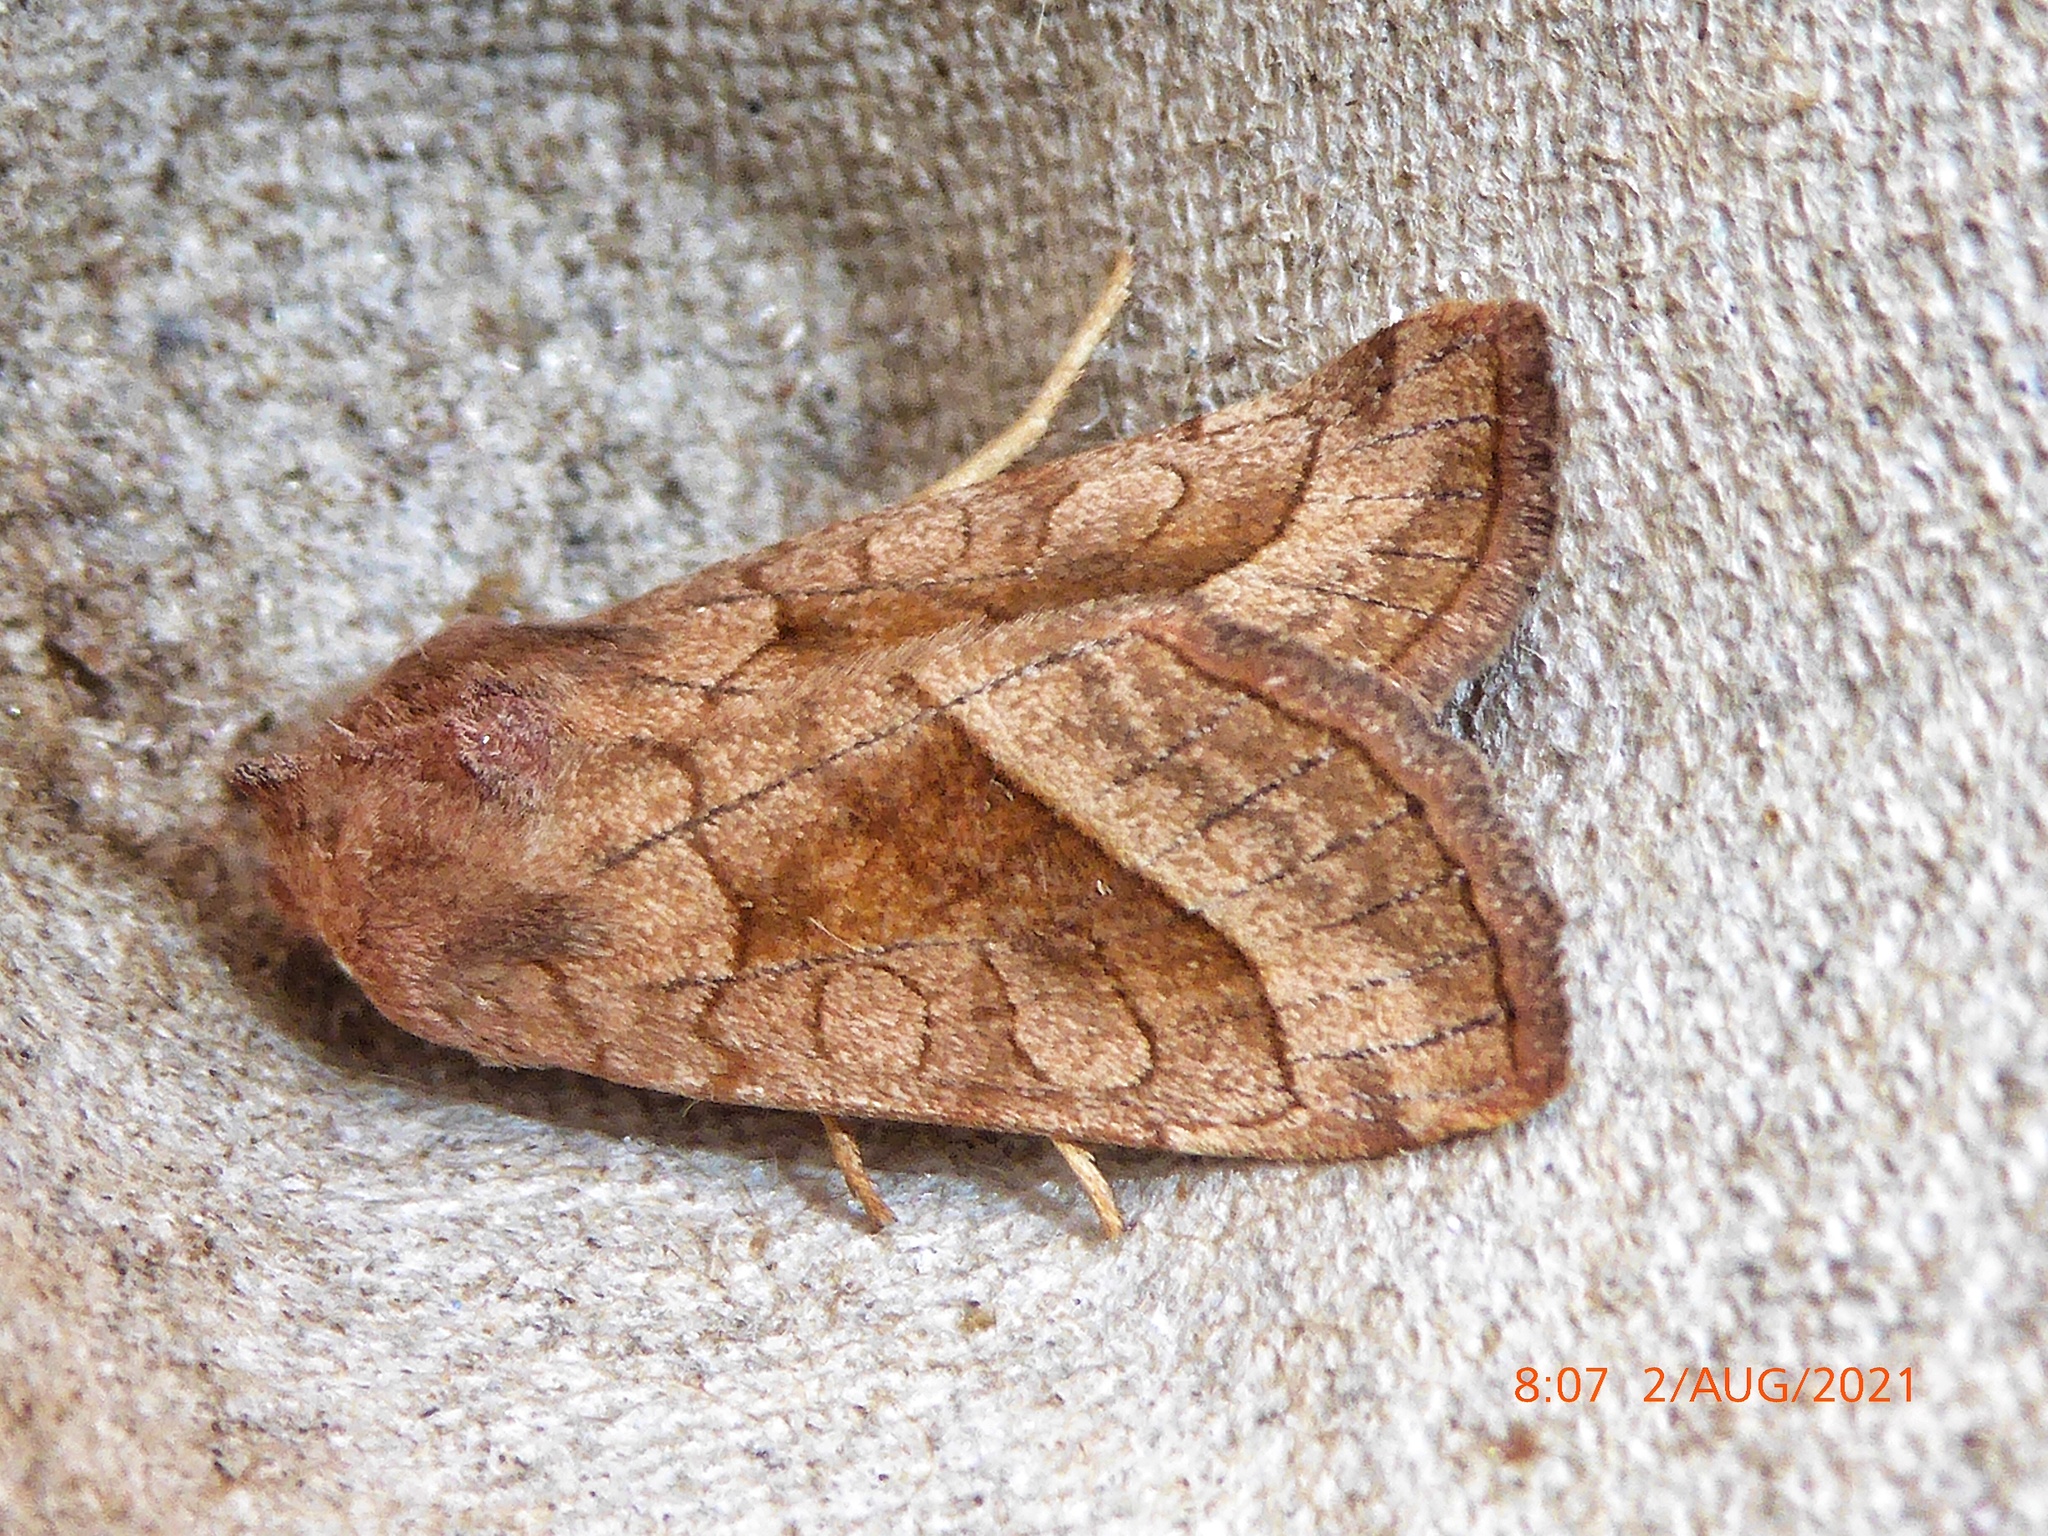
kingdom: Animalia
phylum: Arthropoda
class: Insecta
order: Lepidoptera
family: Noctuidae
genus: Hydraecia
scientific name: Hydraecia micacea
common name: Rosy rustic
